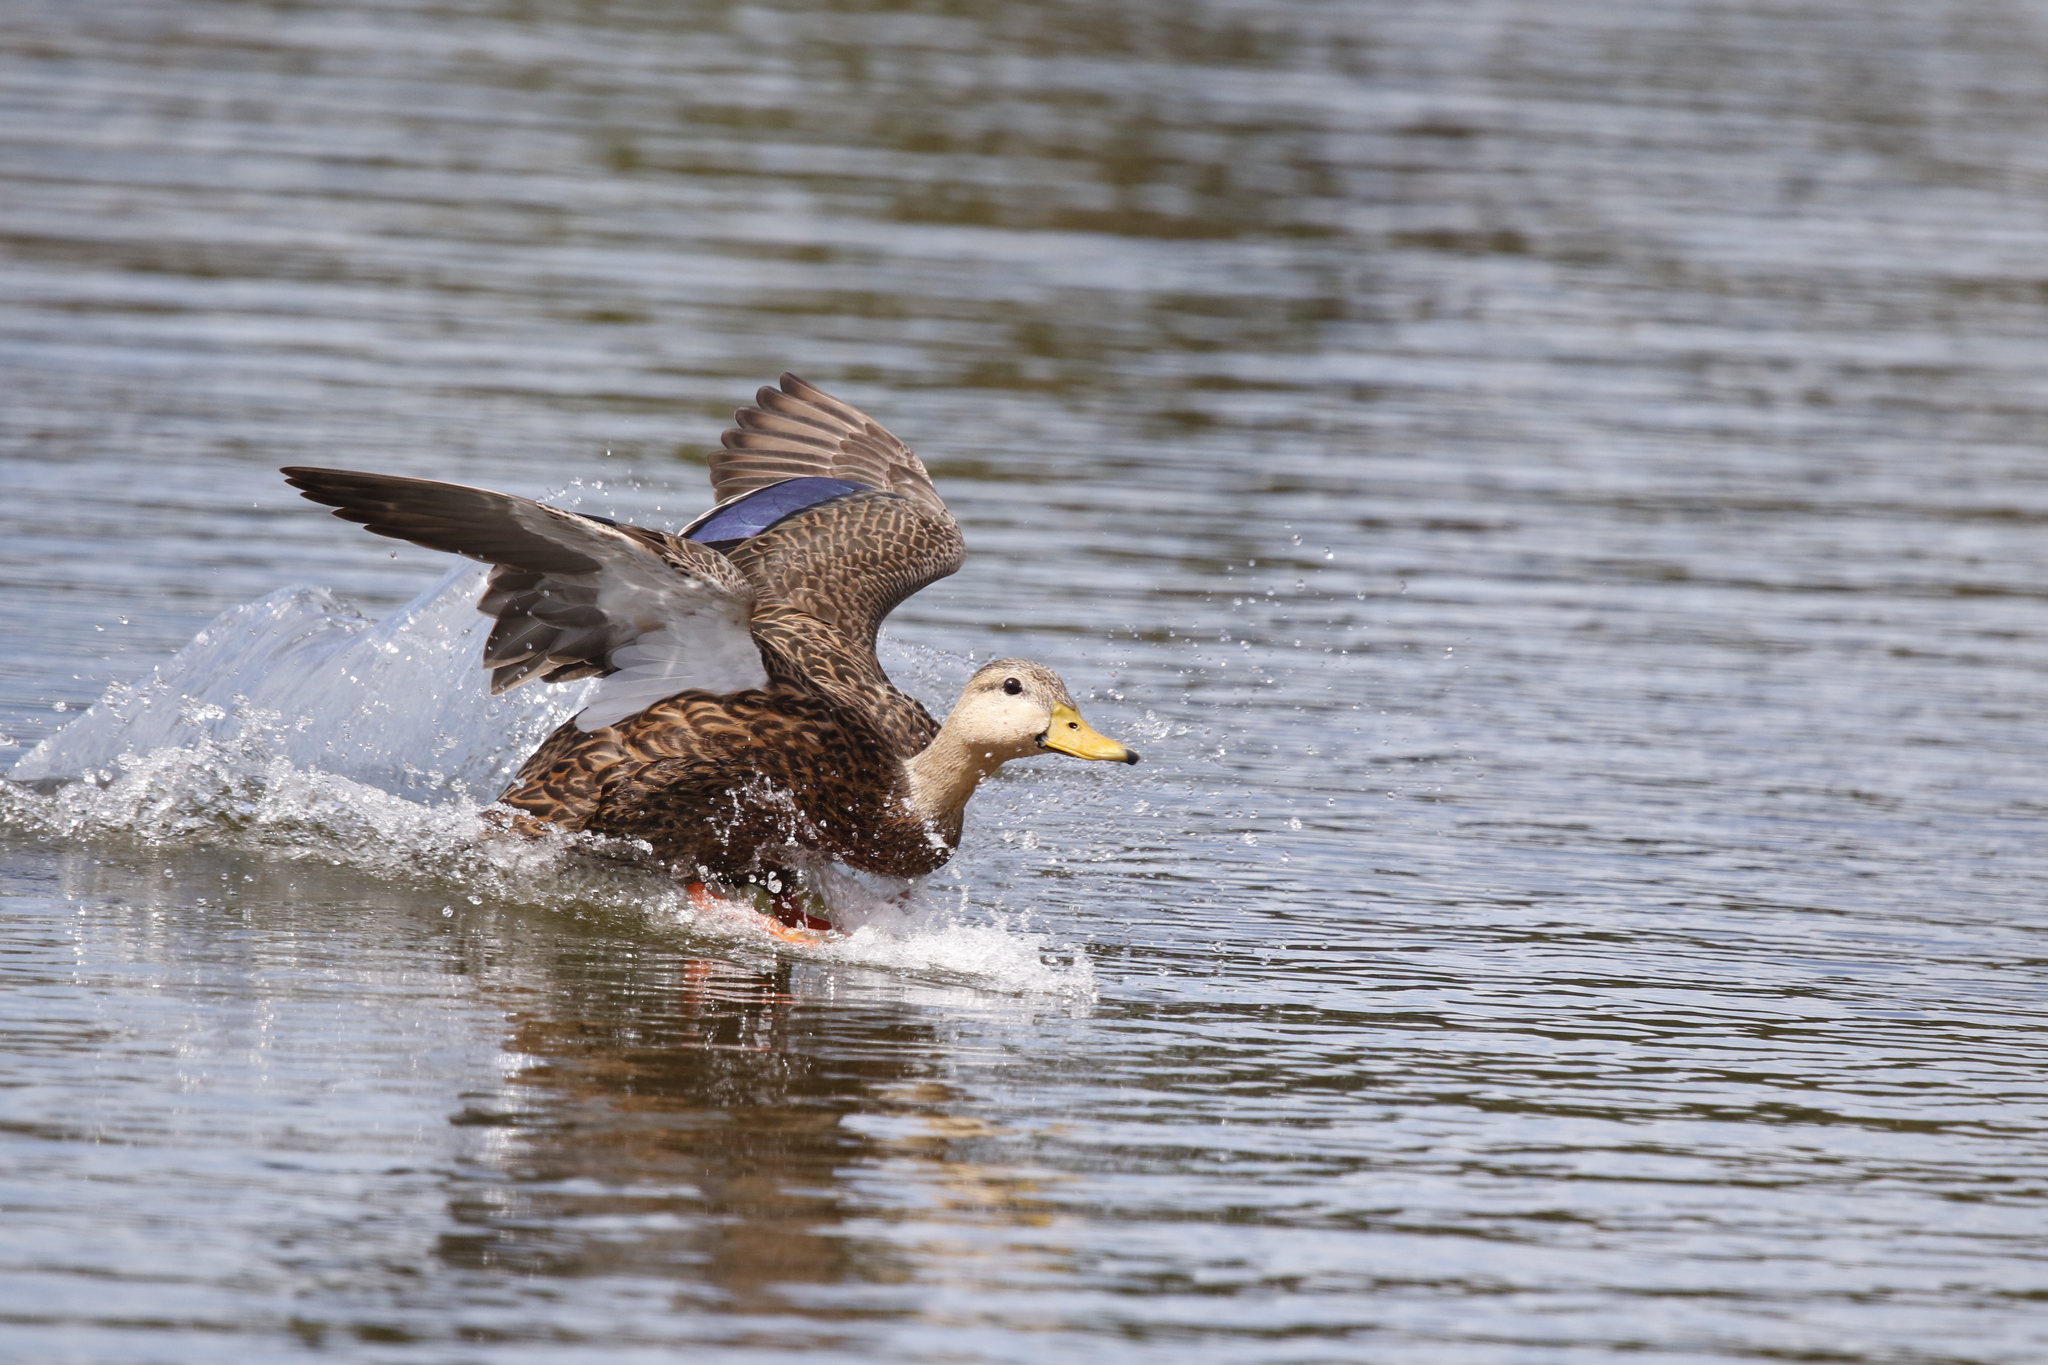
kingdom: Animalia
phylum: Chordata
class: Aves
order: Anseriformes
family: Anatidae
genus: Anas
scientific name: Anas fulvigula
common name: Mottled duck
